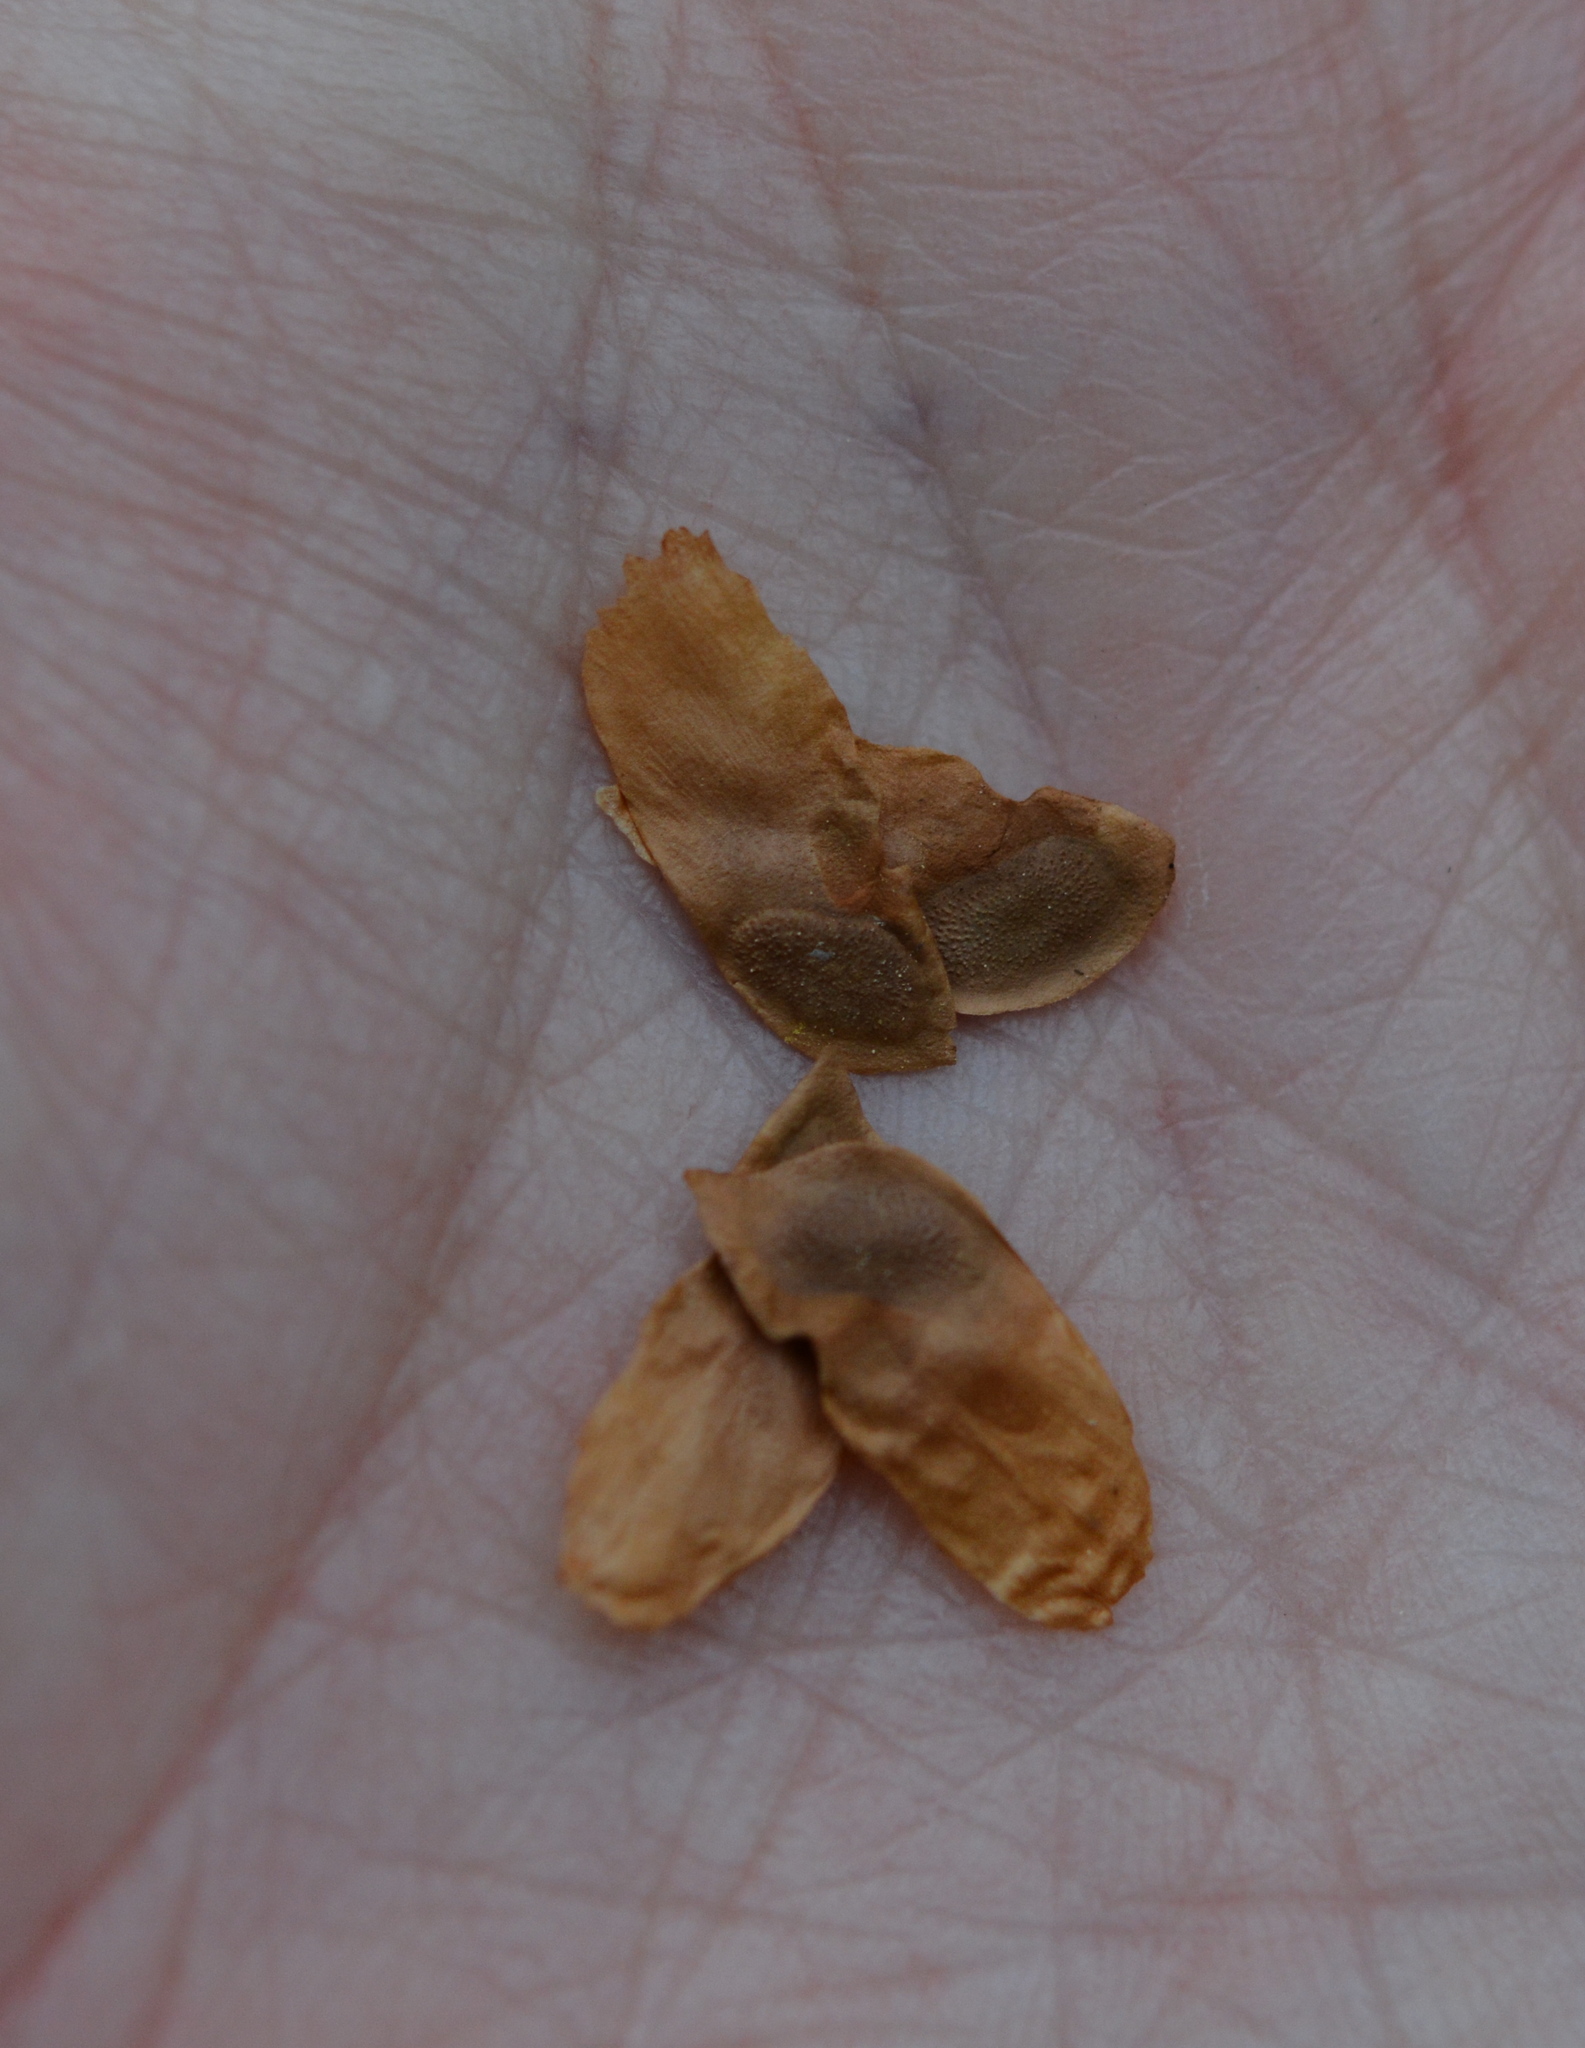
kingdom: Plantae
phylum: Tracheophyta
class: Magnoliopsida
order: Gentianales
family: Gelsemiaceae
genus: Gelsemium
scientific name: Gelsemium sempervirens
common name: Carolina-jasmine
